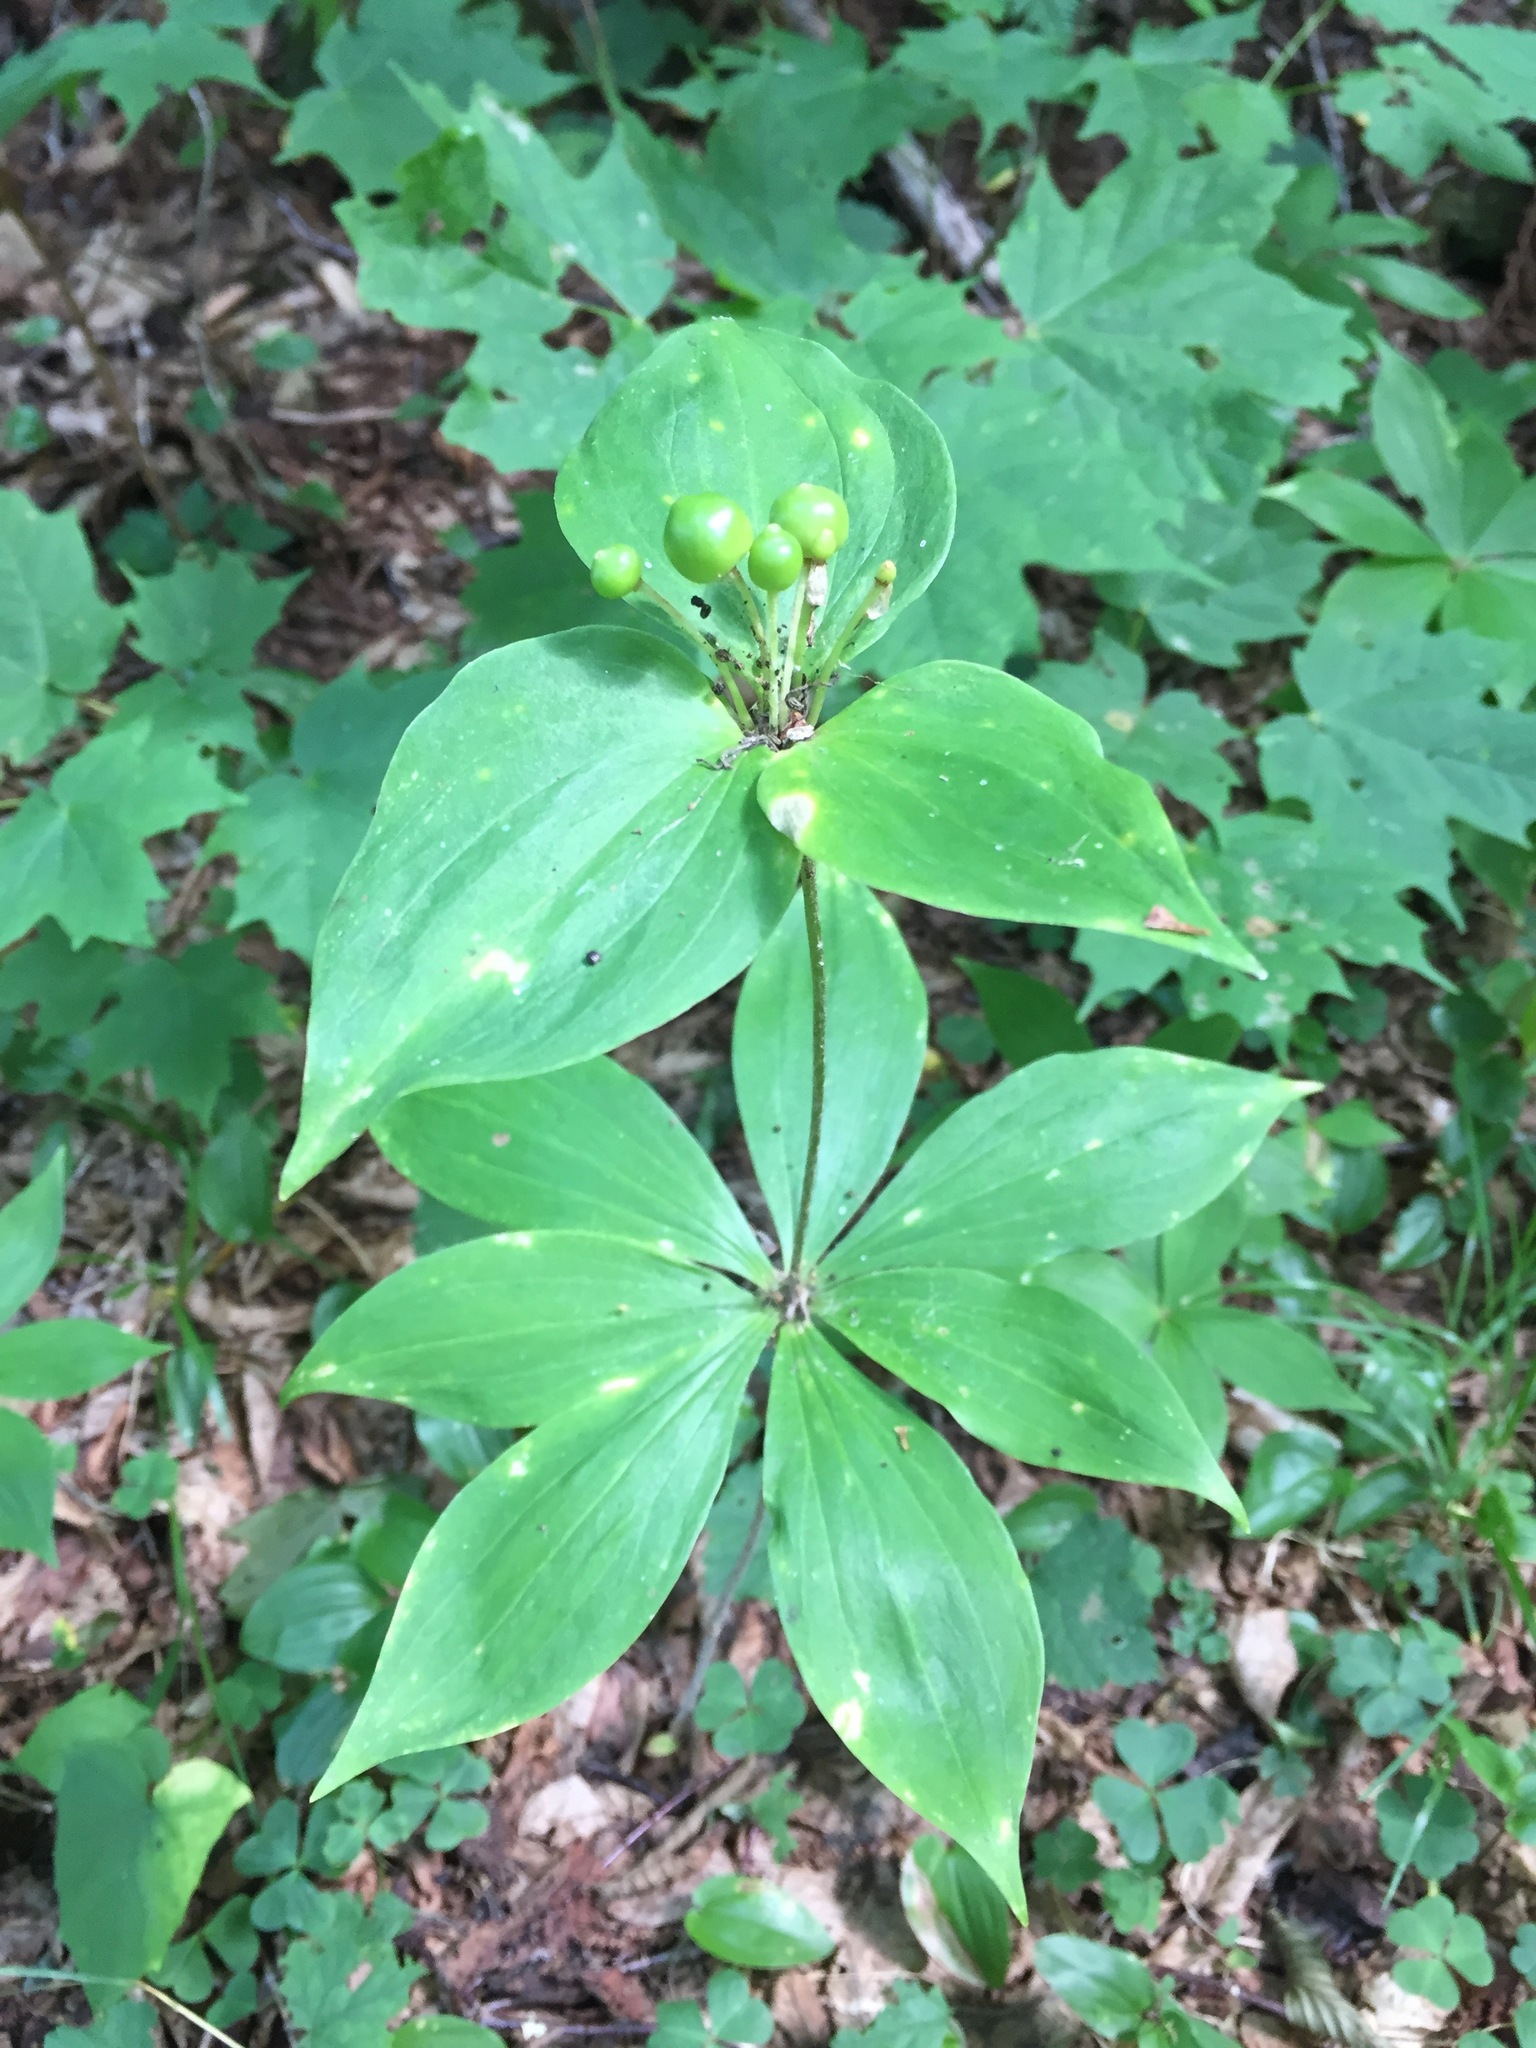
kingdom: Plantae
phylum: Tracheophyta
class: Liliopsida
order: Liliales
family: Liliaceae
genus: Medeola
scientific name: Medeola virginiana
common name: Indian cucumber-root
